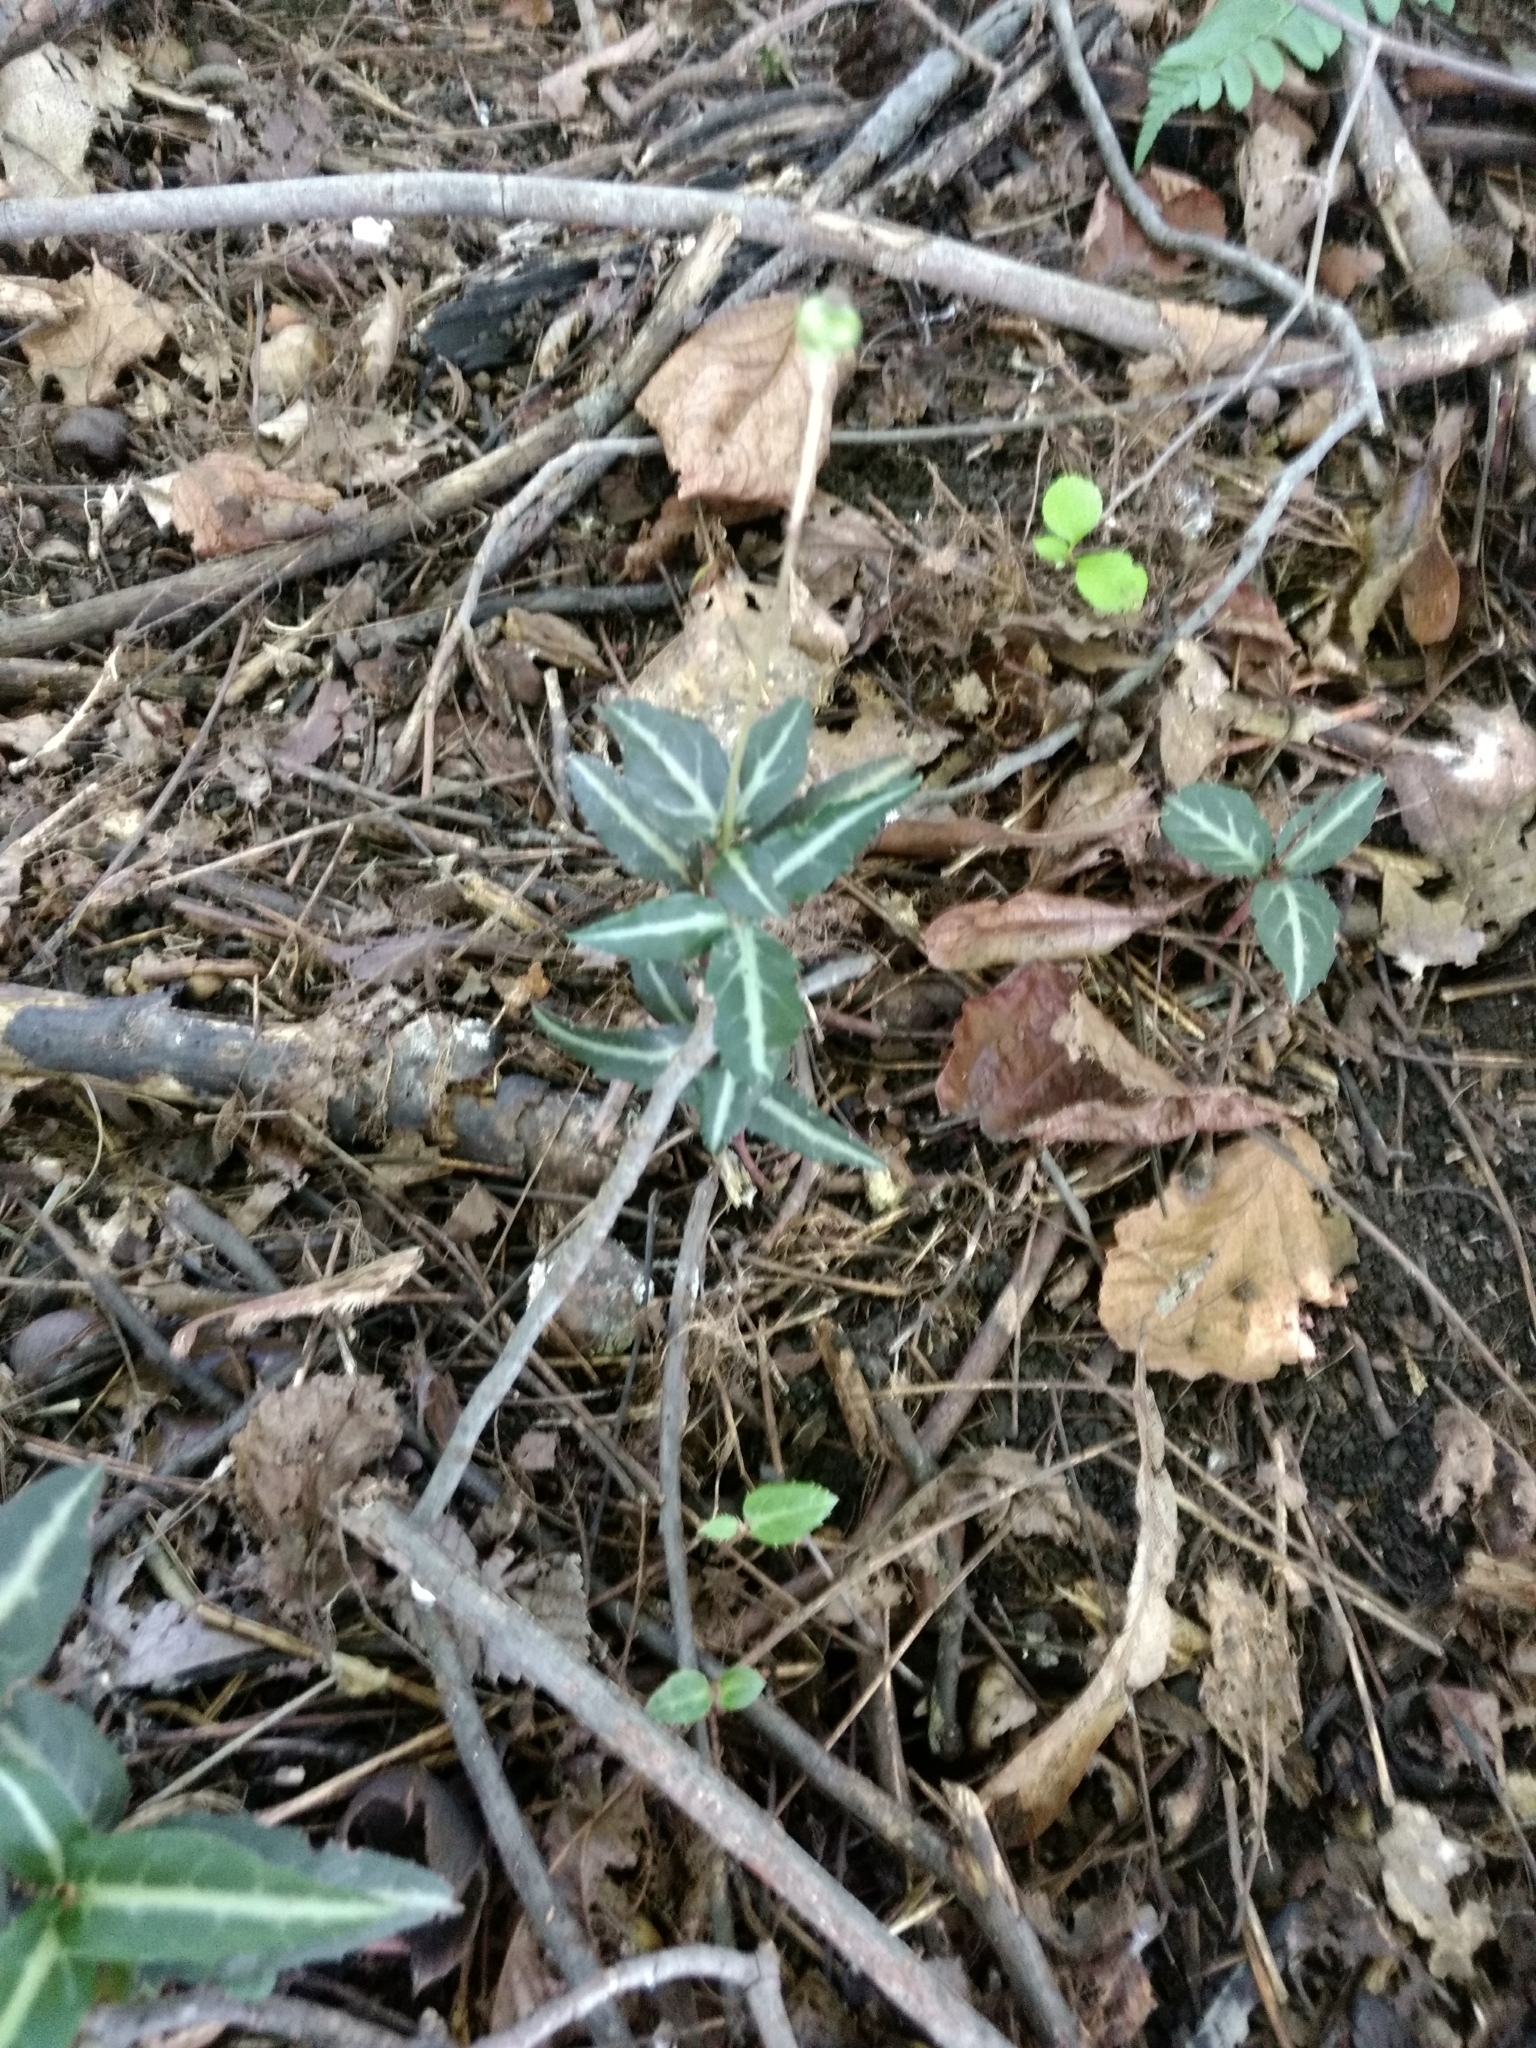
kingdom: Plantae
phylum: Tracheophyta
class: Magnoliopsida
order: Ericales
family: Ericaceae
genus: Chimaphila
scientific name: Chimaphila maculata
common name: Spotted pipsissewa
